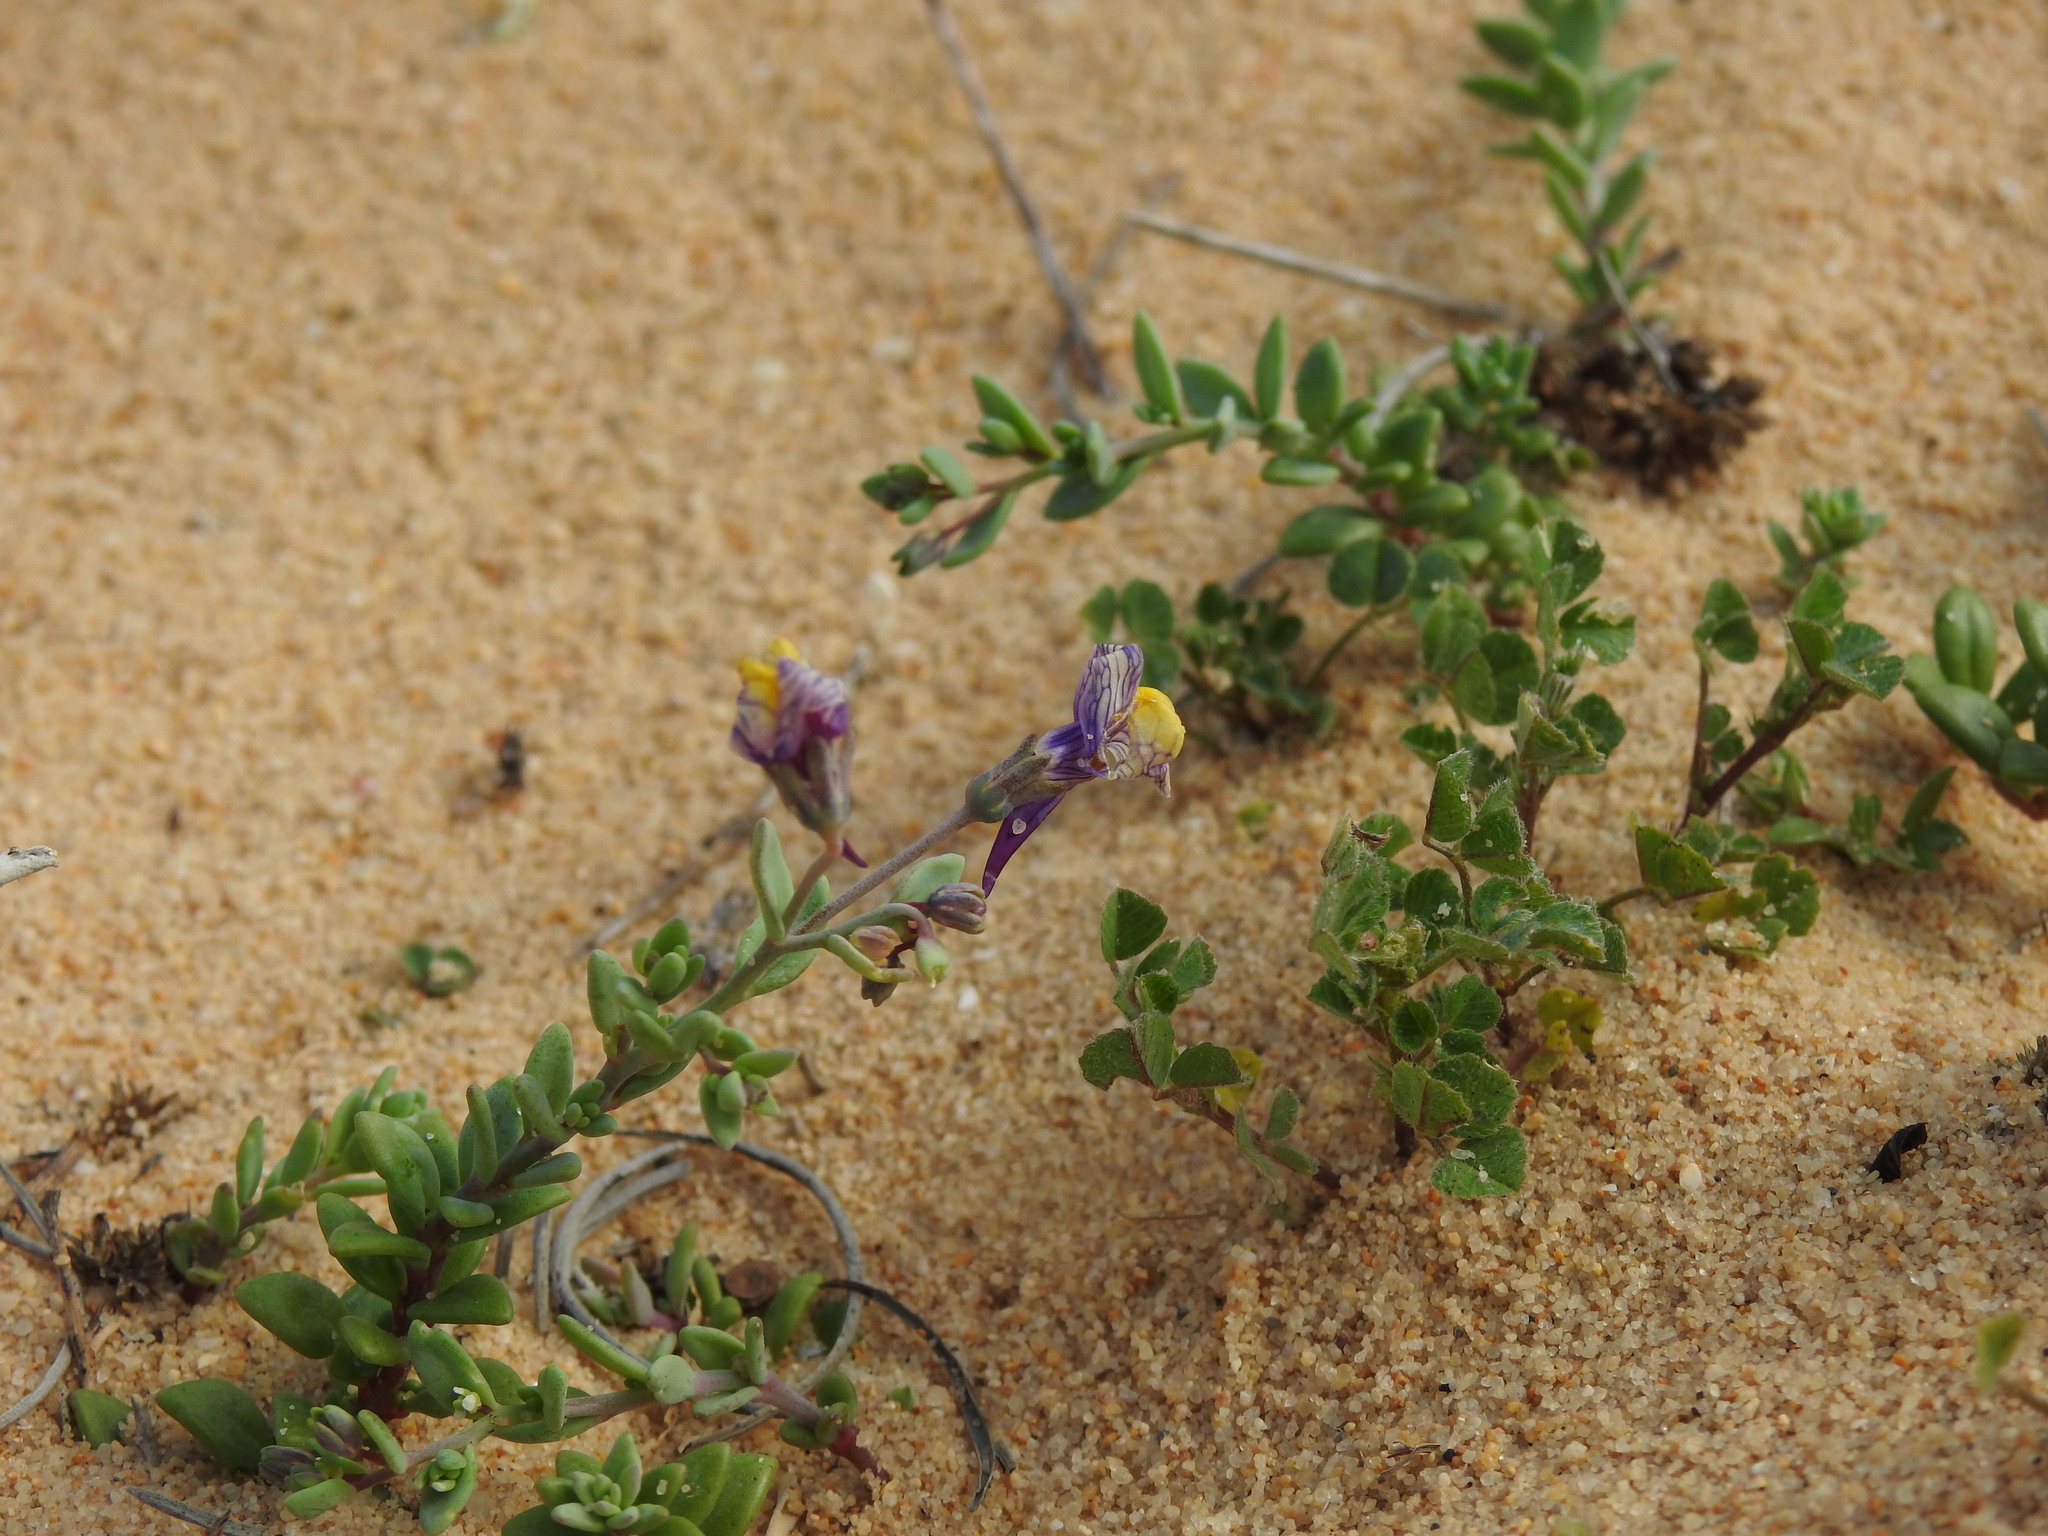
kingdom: Plantae
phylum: Tracheophyta
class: Magnoliopsida
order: Lamiales
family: Plantaginaceae
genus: Linaria
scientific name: Linaria pedunculata
